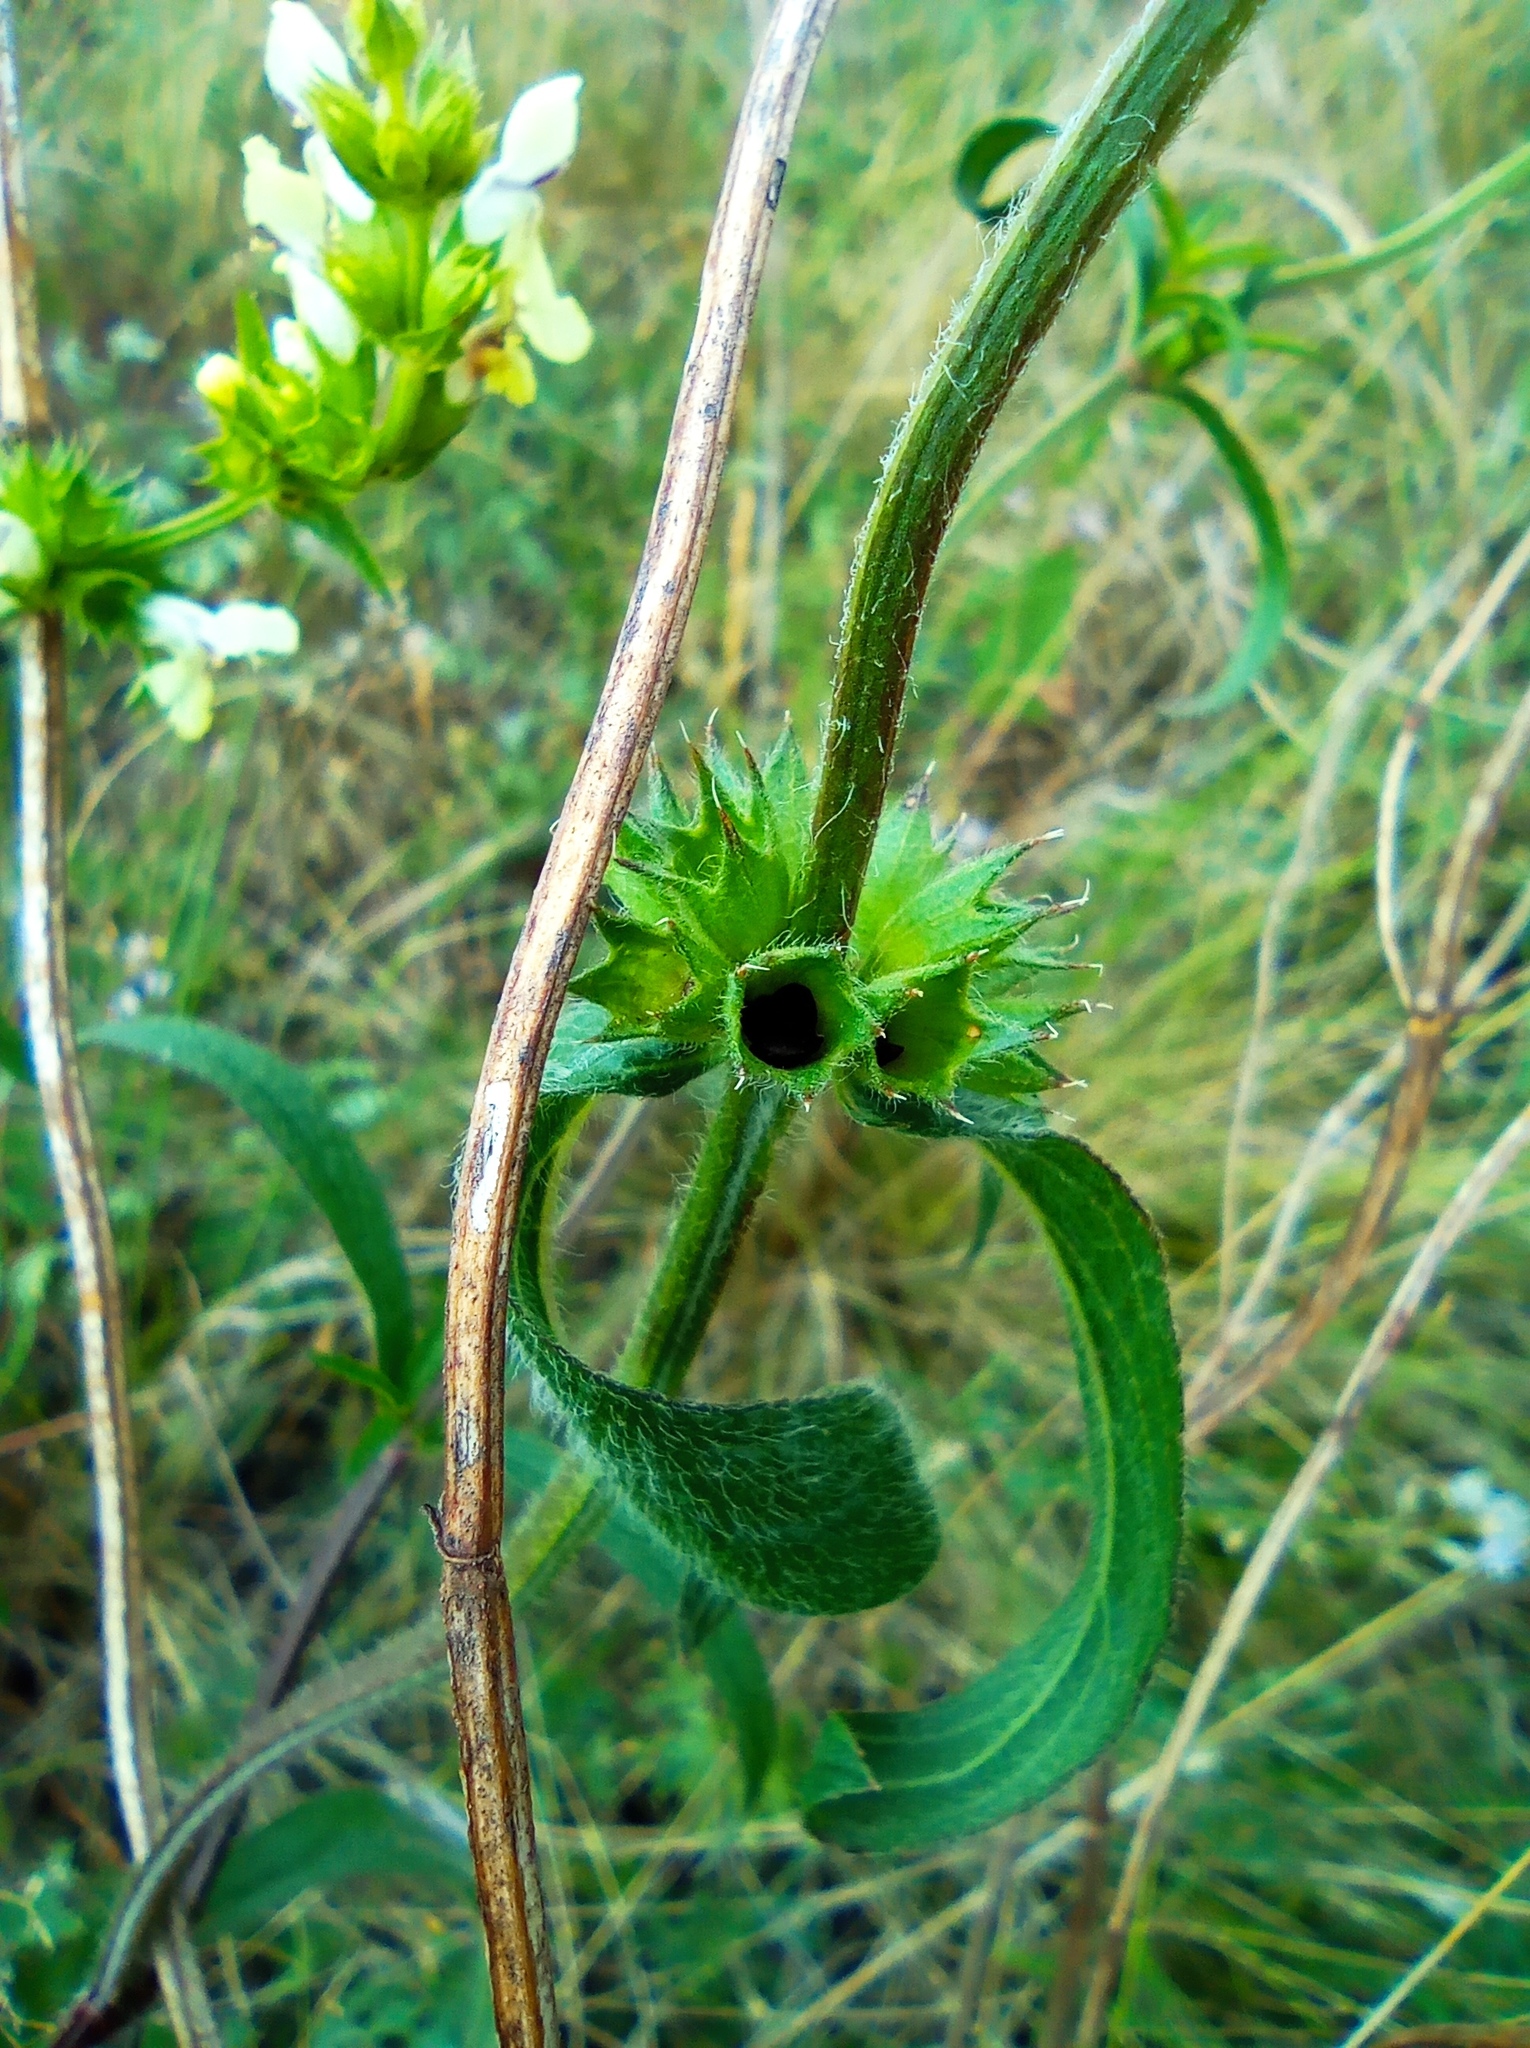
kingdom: Plantae
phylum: Tracheophyta
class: Magnoliopsida
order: Lamiales
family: Lamiaceae
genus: Stachys
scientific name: Stachys recta
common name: Perennial yellow-woundwort
